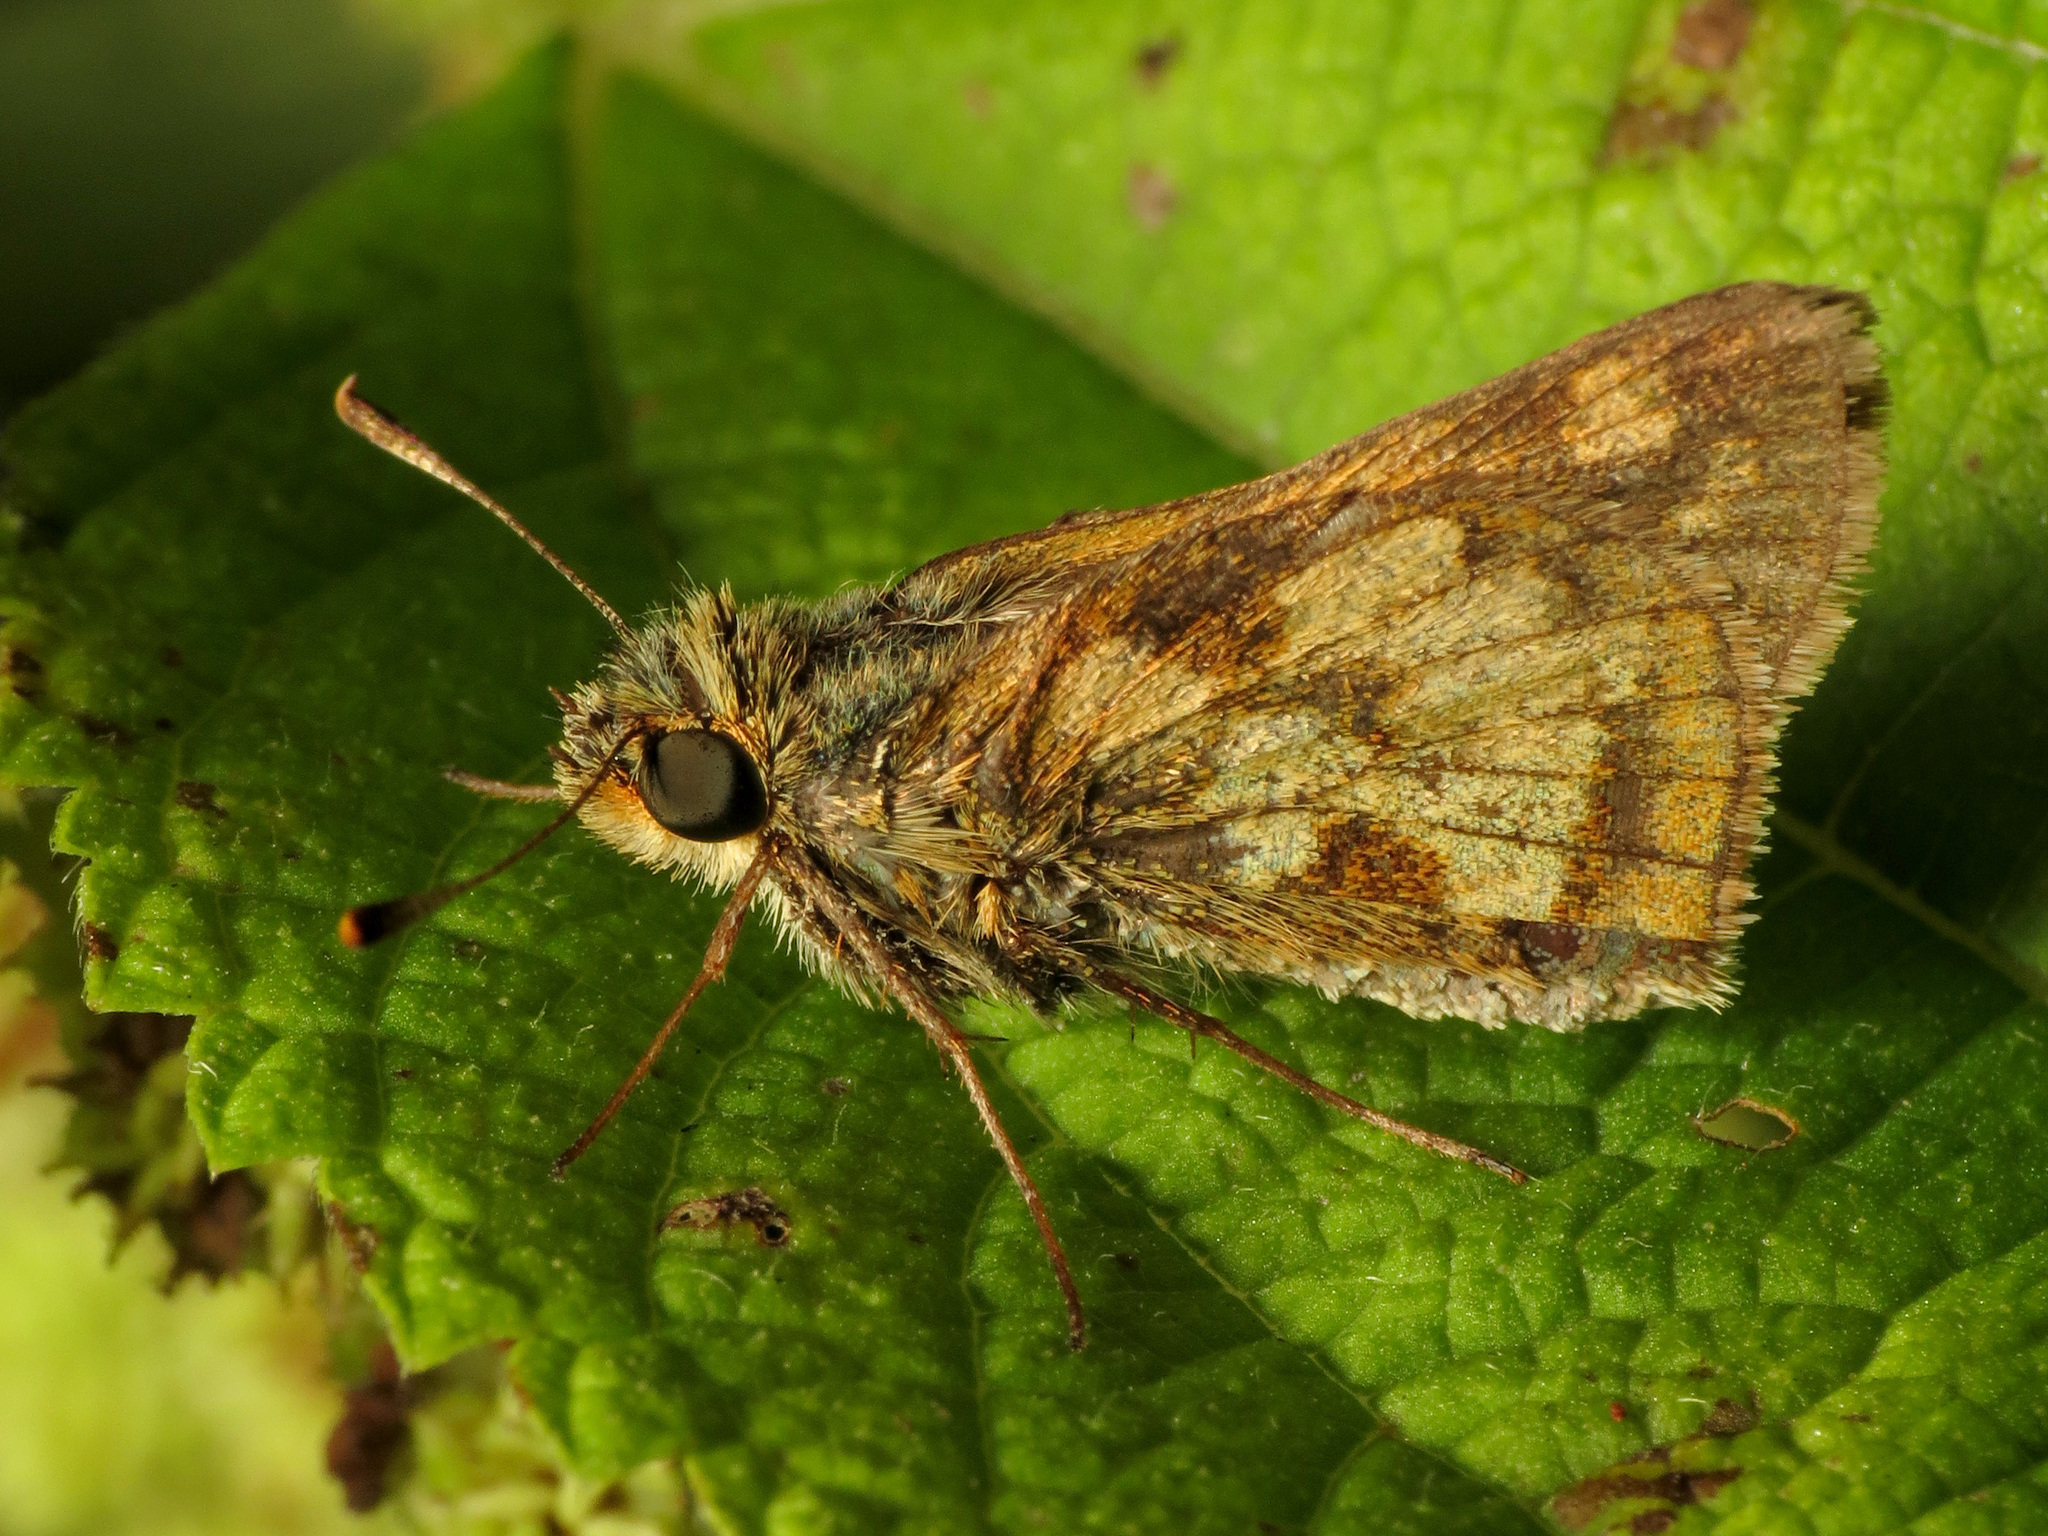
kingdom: Animalia
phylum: Arthropoda
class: Insecta
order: Lepidoptera
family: Hesperiidae
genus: Polites
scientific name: Polites coras
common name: Peck's skipper
